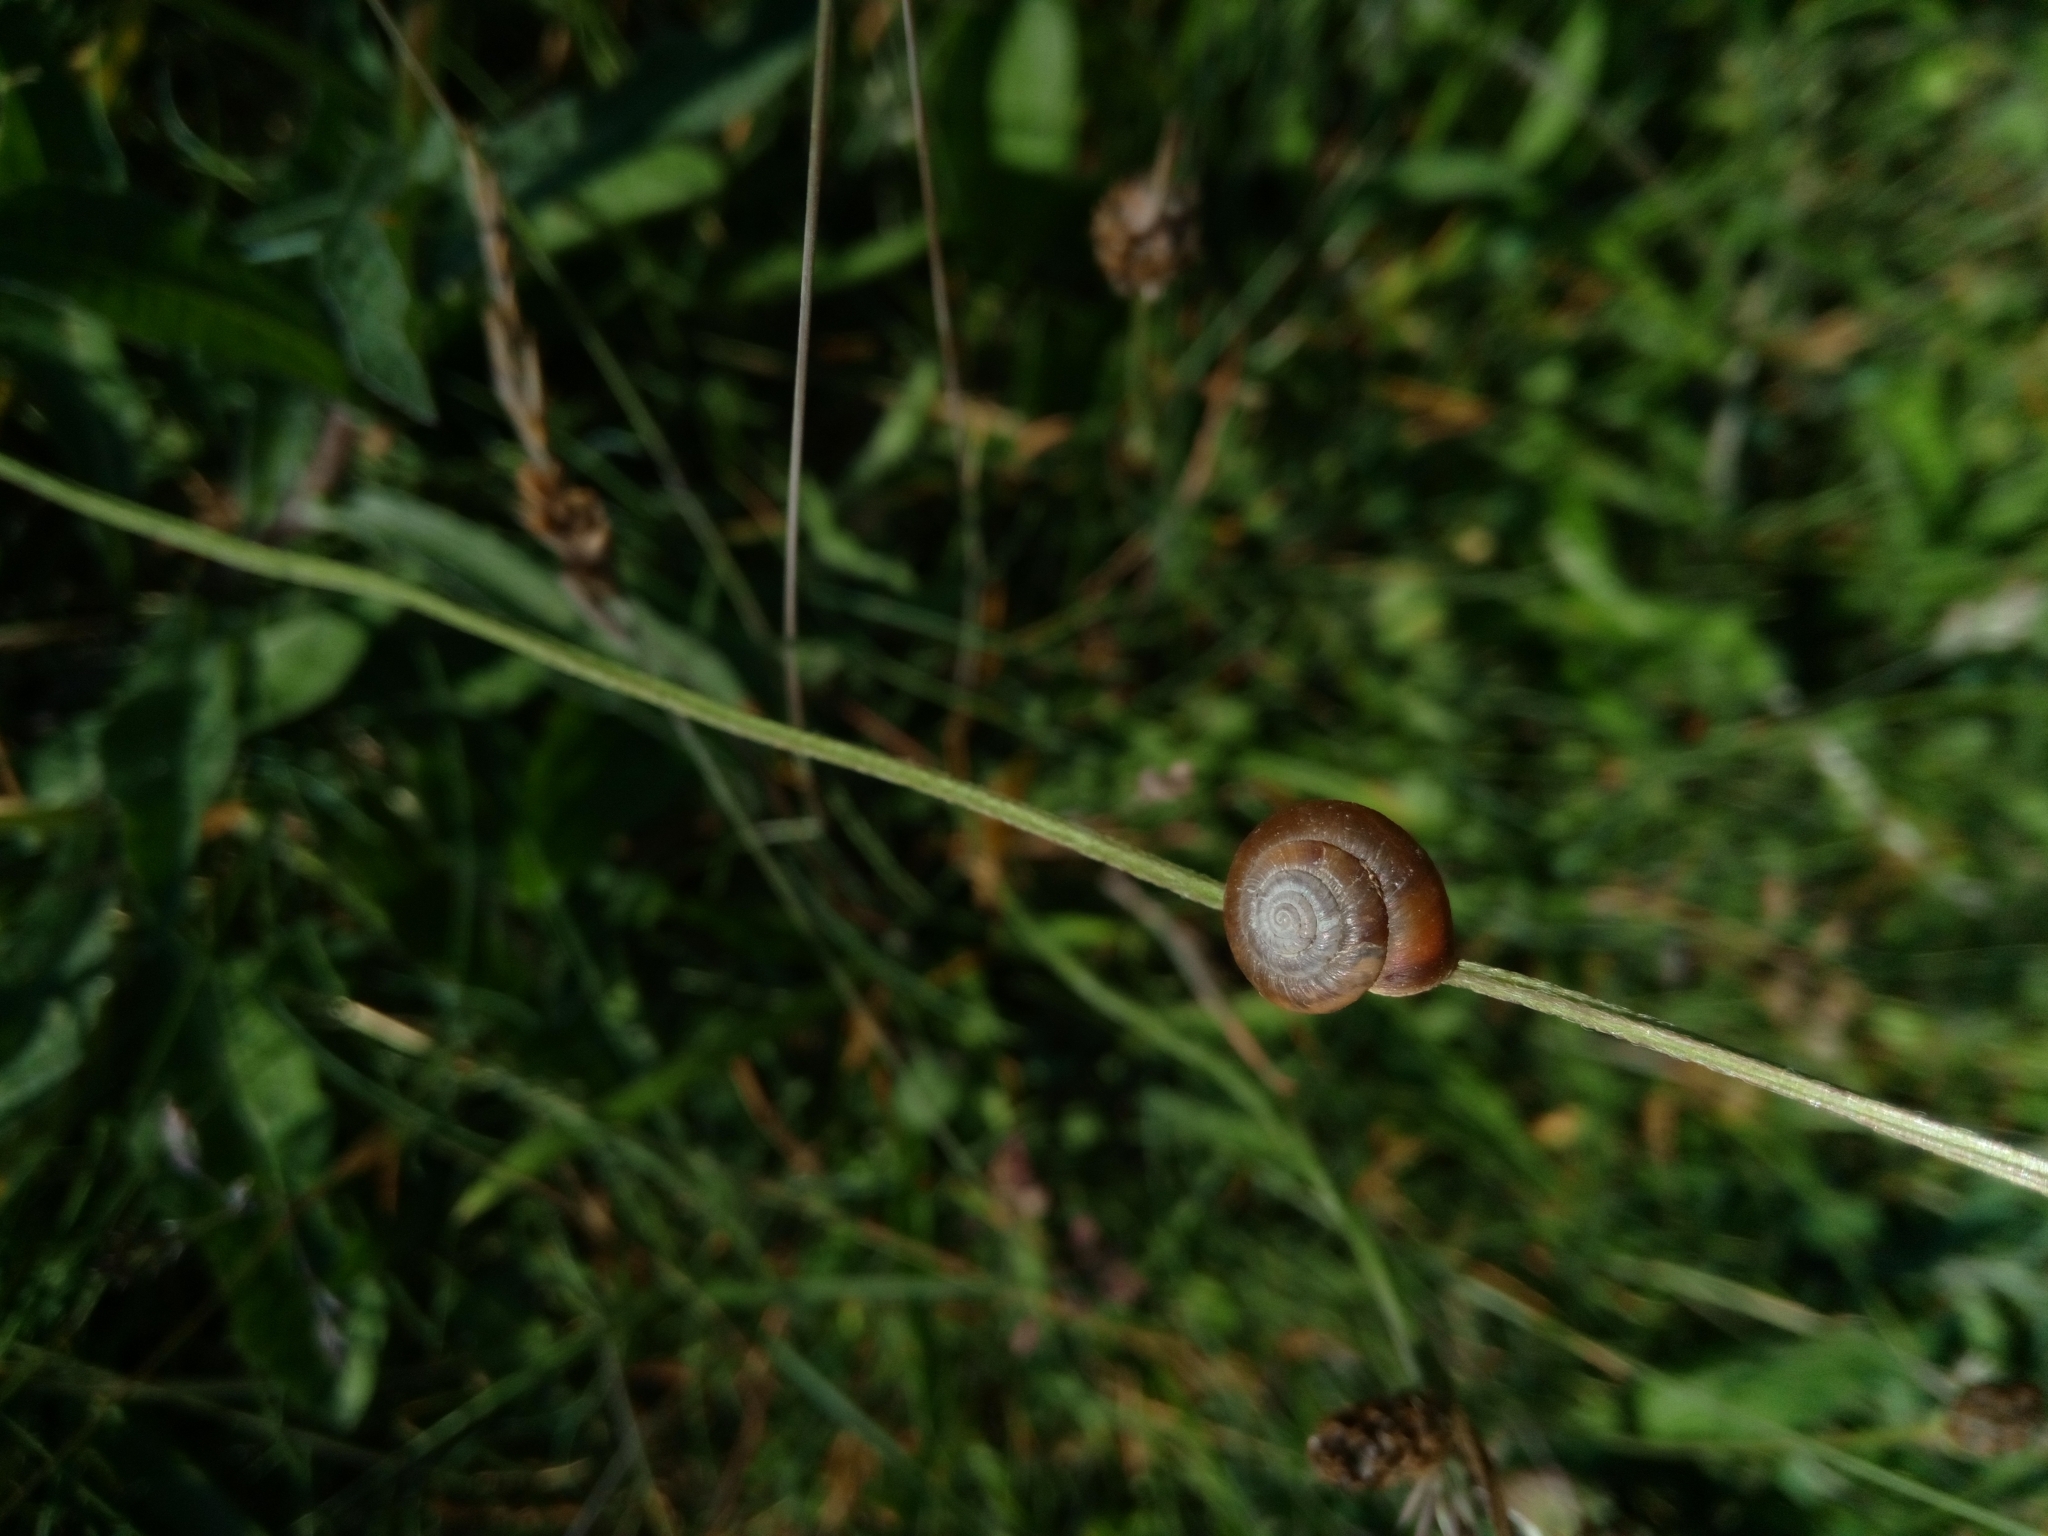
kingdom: Animalia
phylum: Mollusca
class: Gastropoda
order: Stylommatophora
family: Hygromiidae
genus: Trochulus
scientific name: Trochulus striolatus
